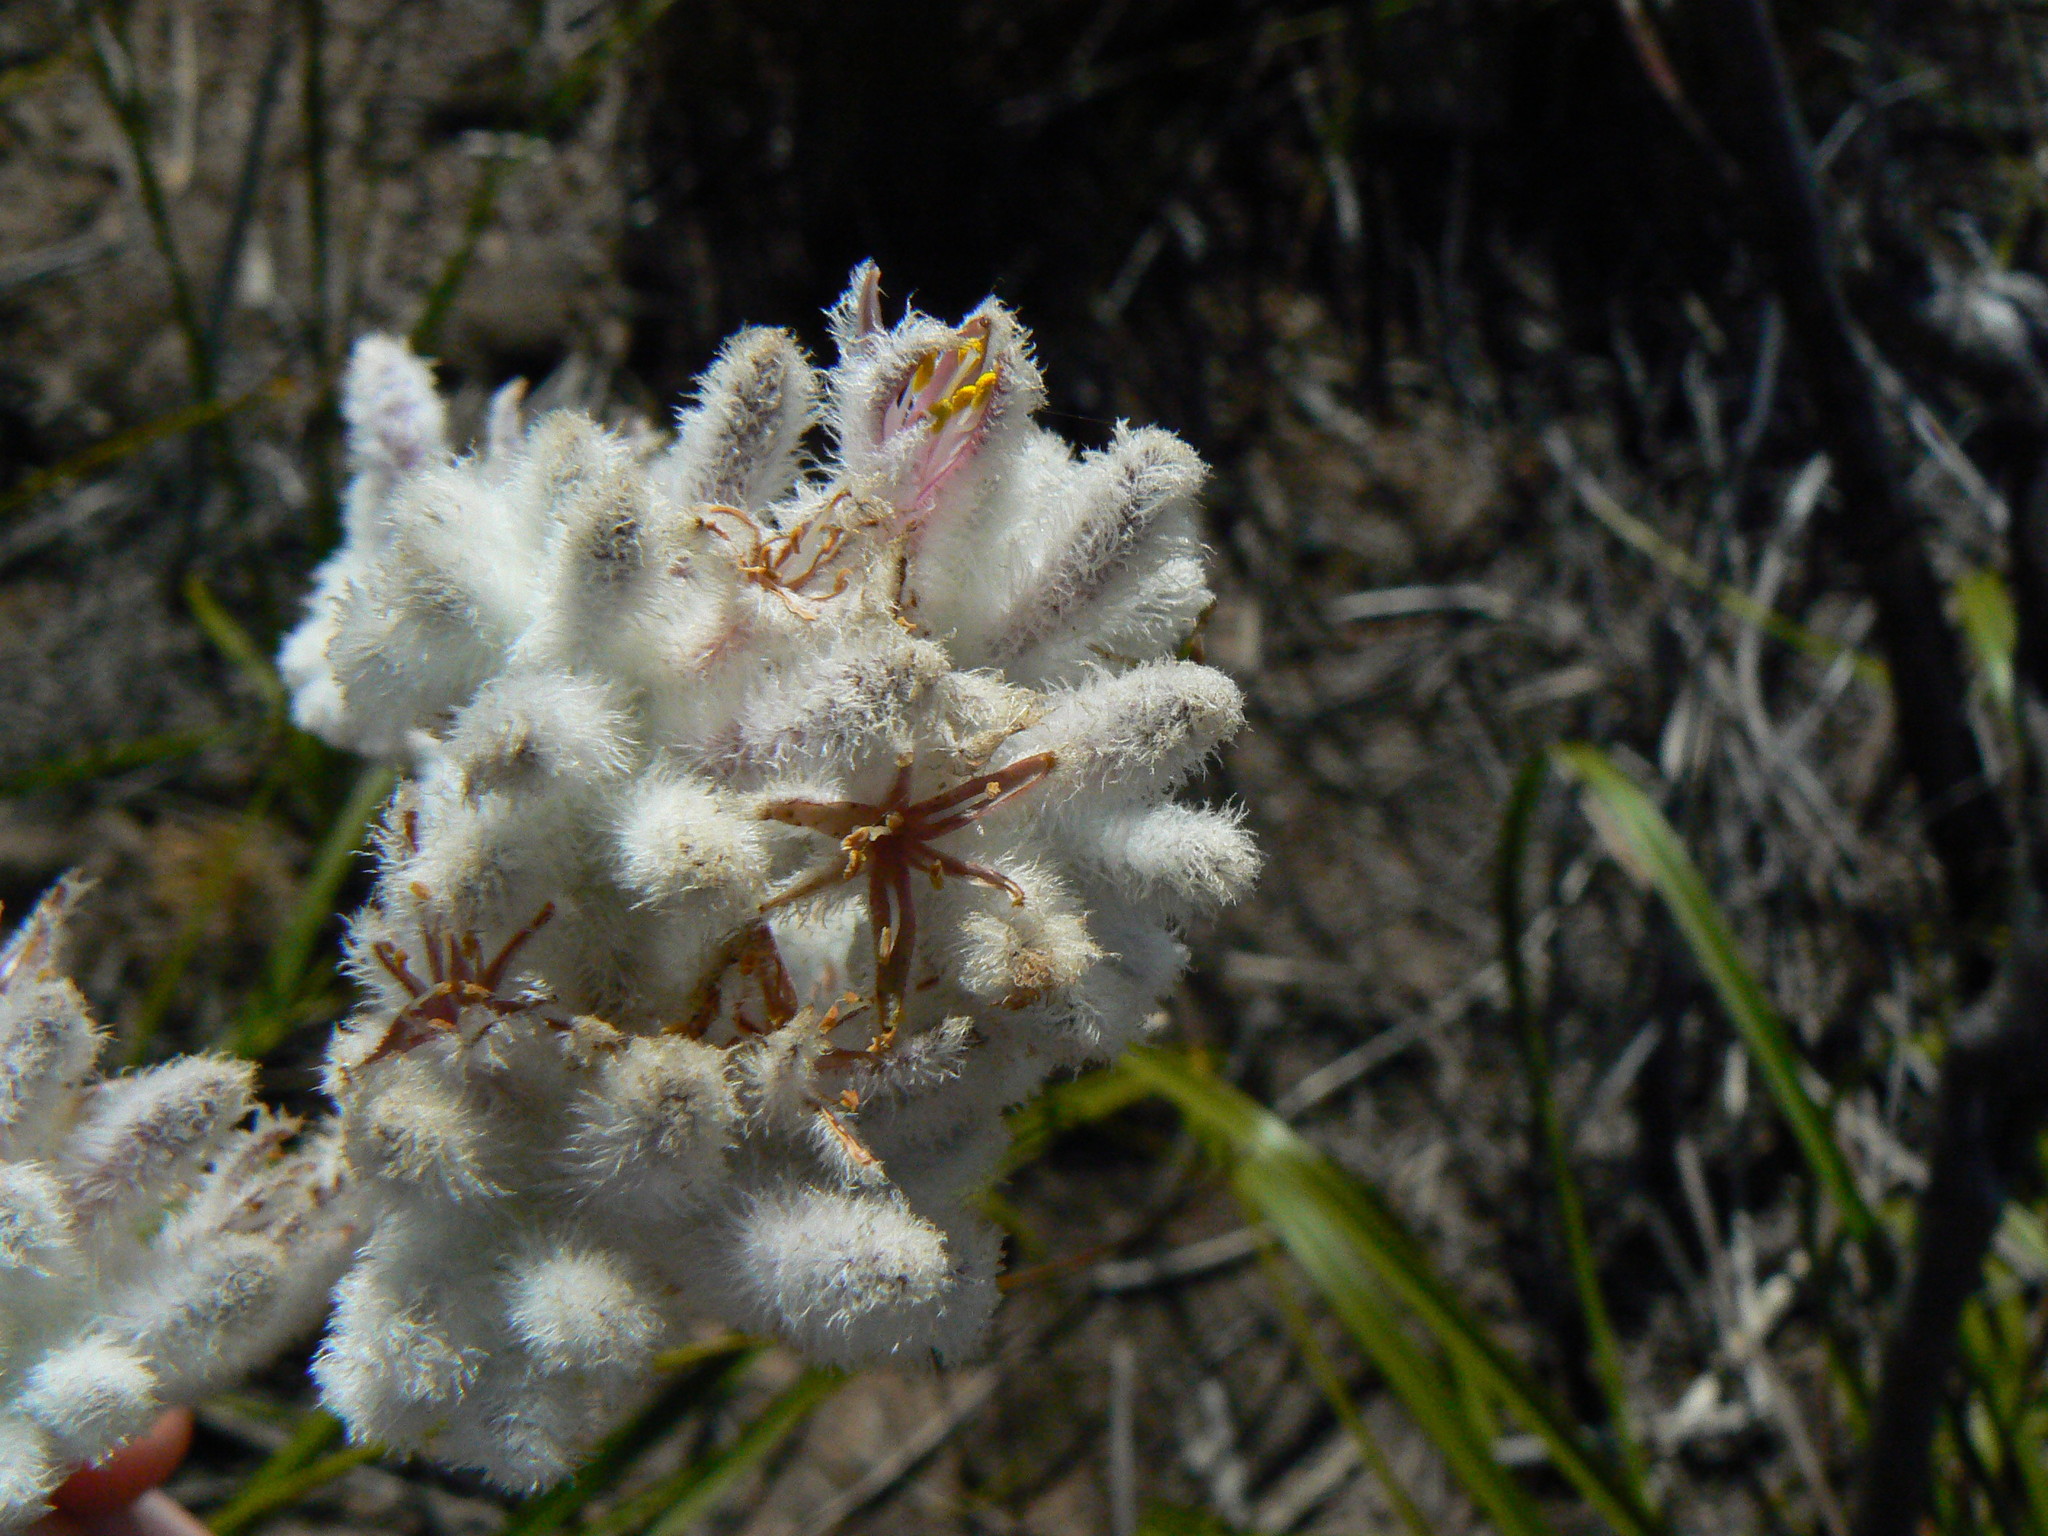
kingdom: Plantae
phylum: Tracheophyta
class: Liliopsida
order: Asparagales
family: Lanariaceae
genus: Lanaria
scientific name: Lanaria lanata
